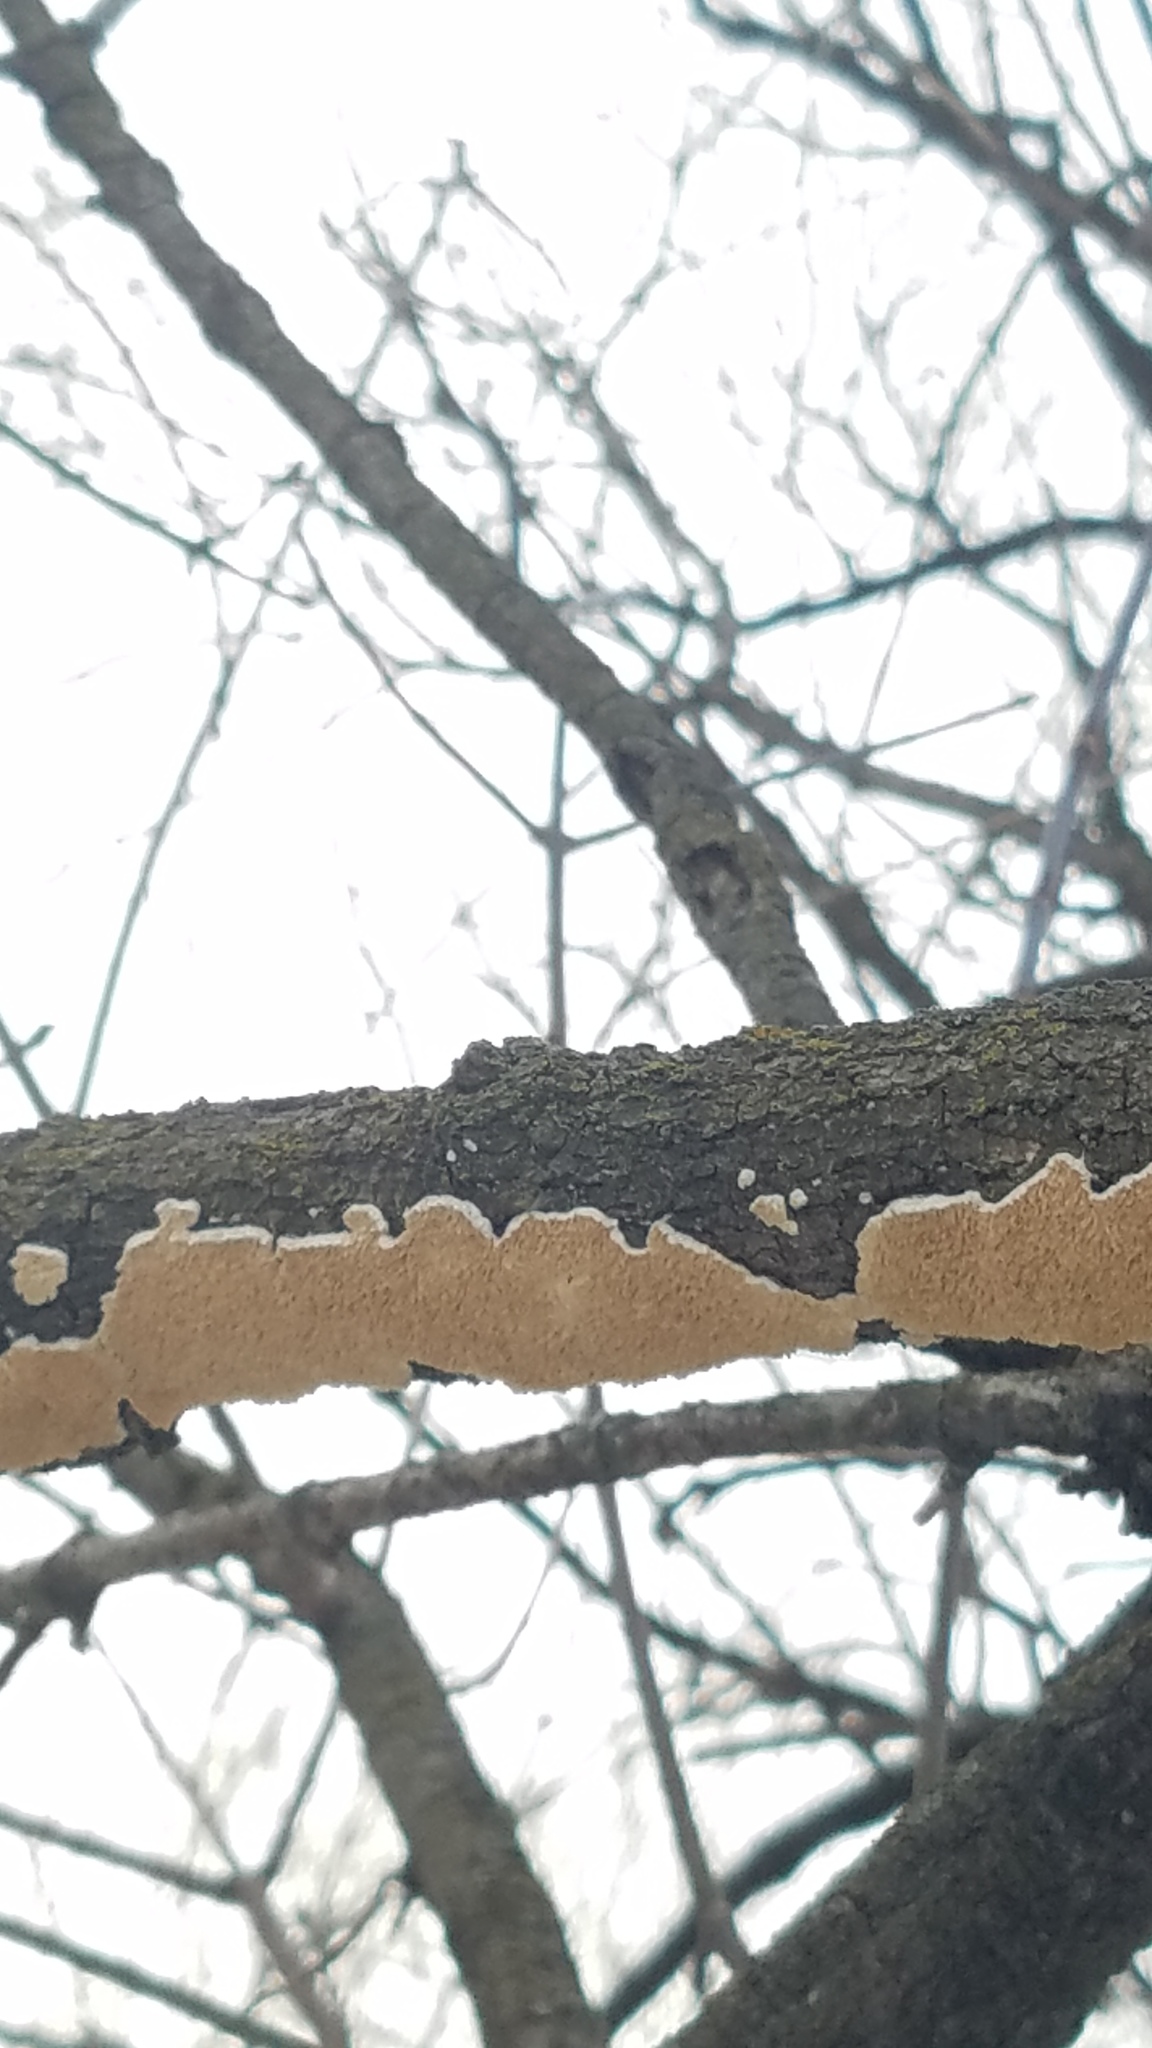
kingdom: Fungi
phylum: Basidiomycota
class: Agaricomycetes
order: Polyporales
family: Irpicaceae
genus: Irpex
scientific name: Irpex lacteus
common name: Milk-white toothed polypore
